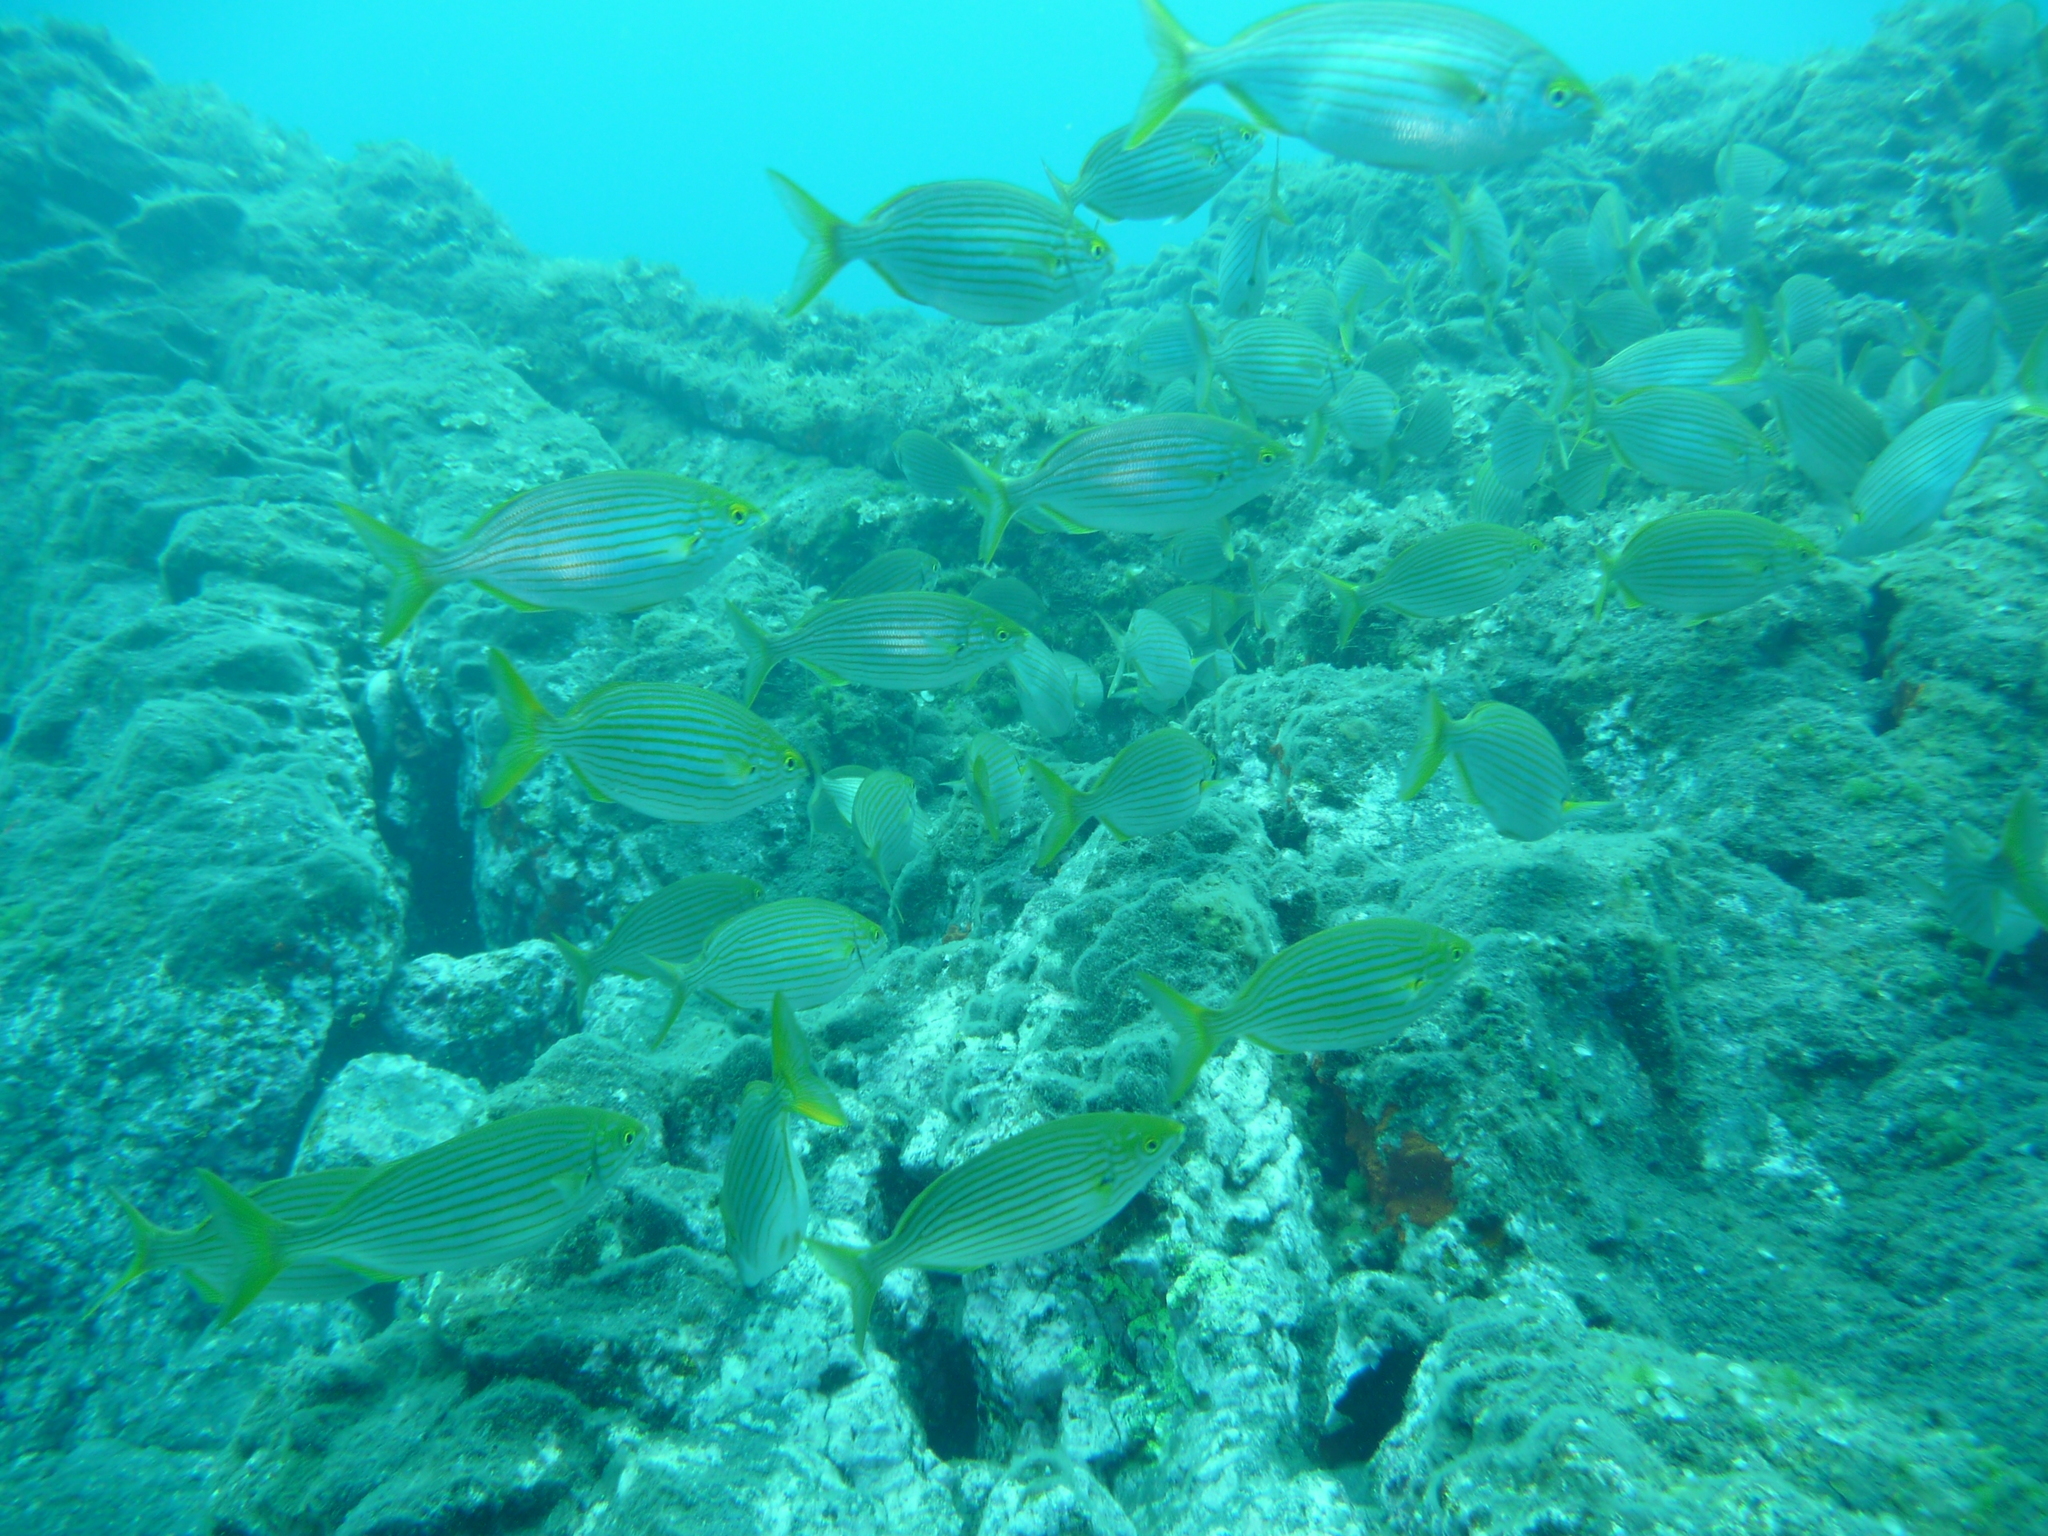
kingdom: Animalia
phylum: Chordata
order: Perciformes
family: Sparidae
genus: Sarpa
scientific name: Sarpa salpa
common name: Salema
